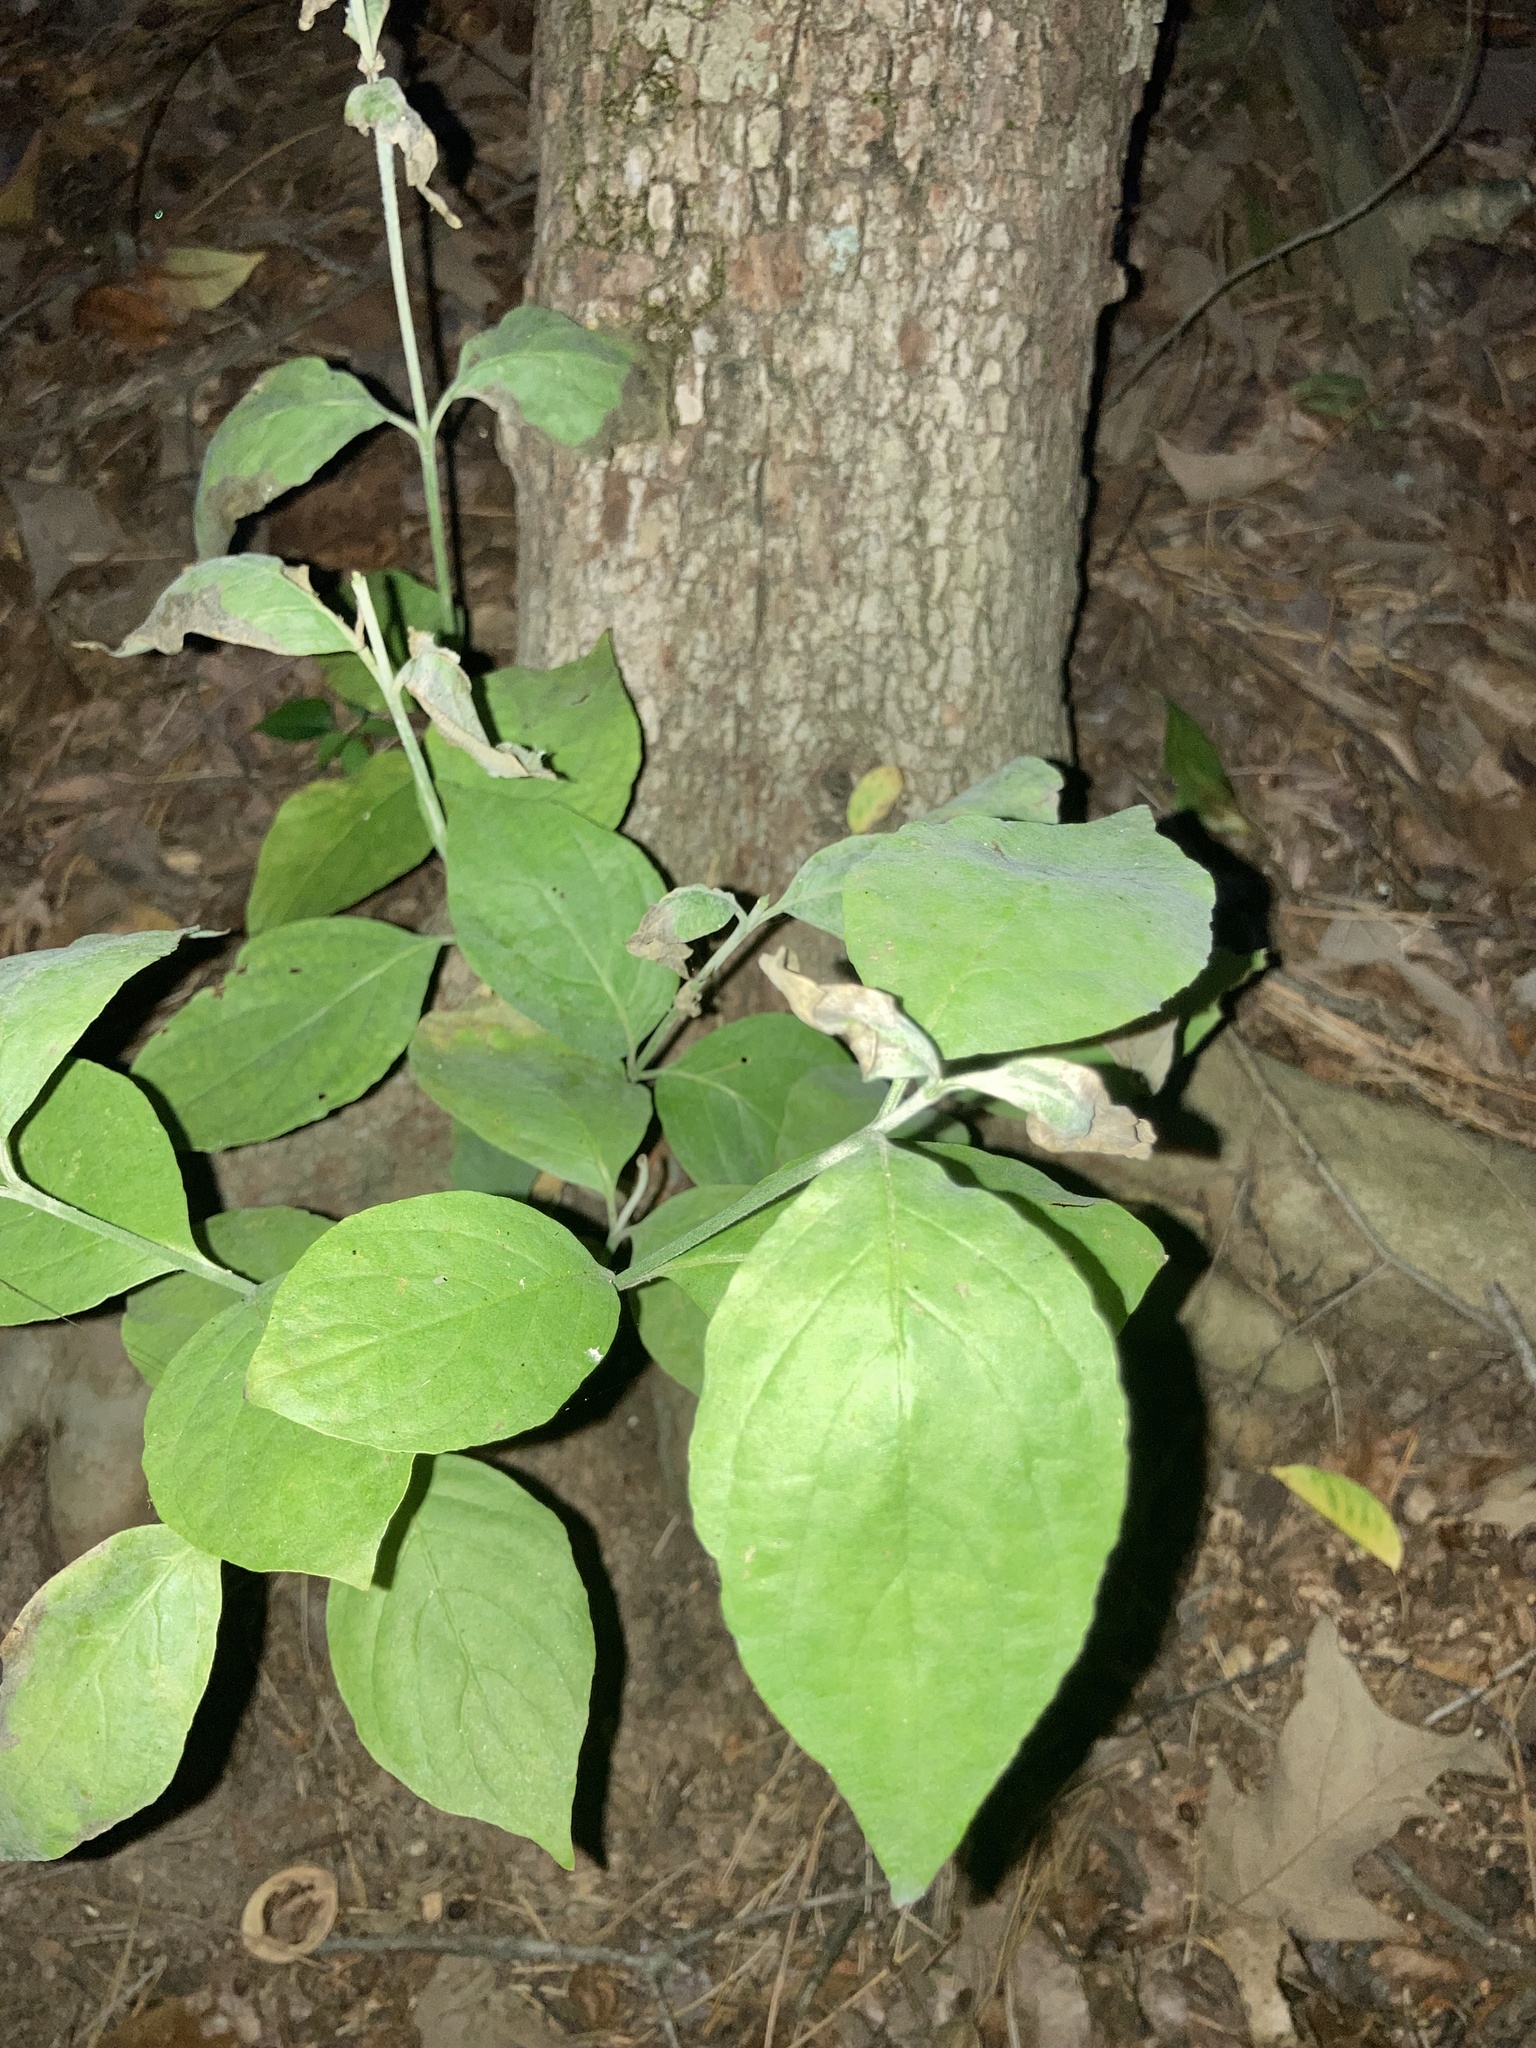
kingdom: Plantae
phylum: Tracheophyta
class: Magnoliopsida
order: Cornales
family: Cornaceae
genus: Cornus
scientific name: Cornus florida
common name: Flowering dogwood
